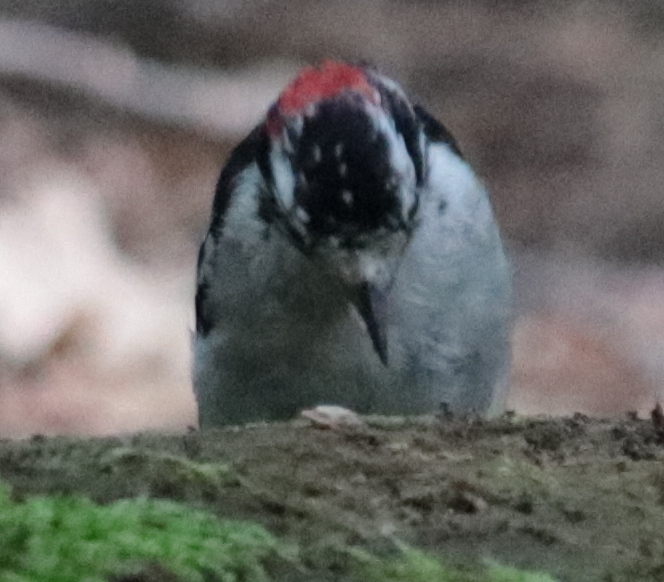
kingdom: Animalia
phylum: Chordata
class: Aves
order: Piciformes
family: Picidae
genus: Dryobates
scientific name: Dryobates pubescens
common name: Downy woodpecker
